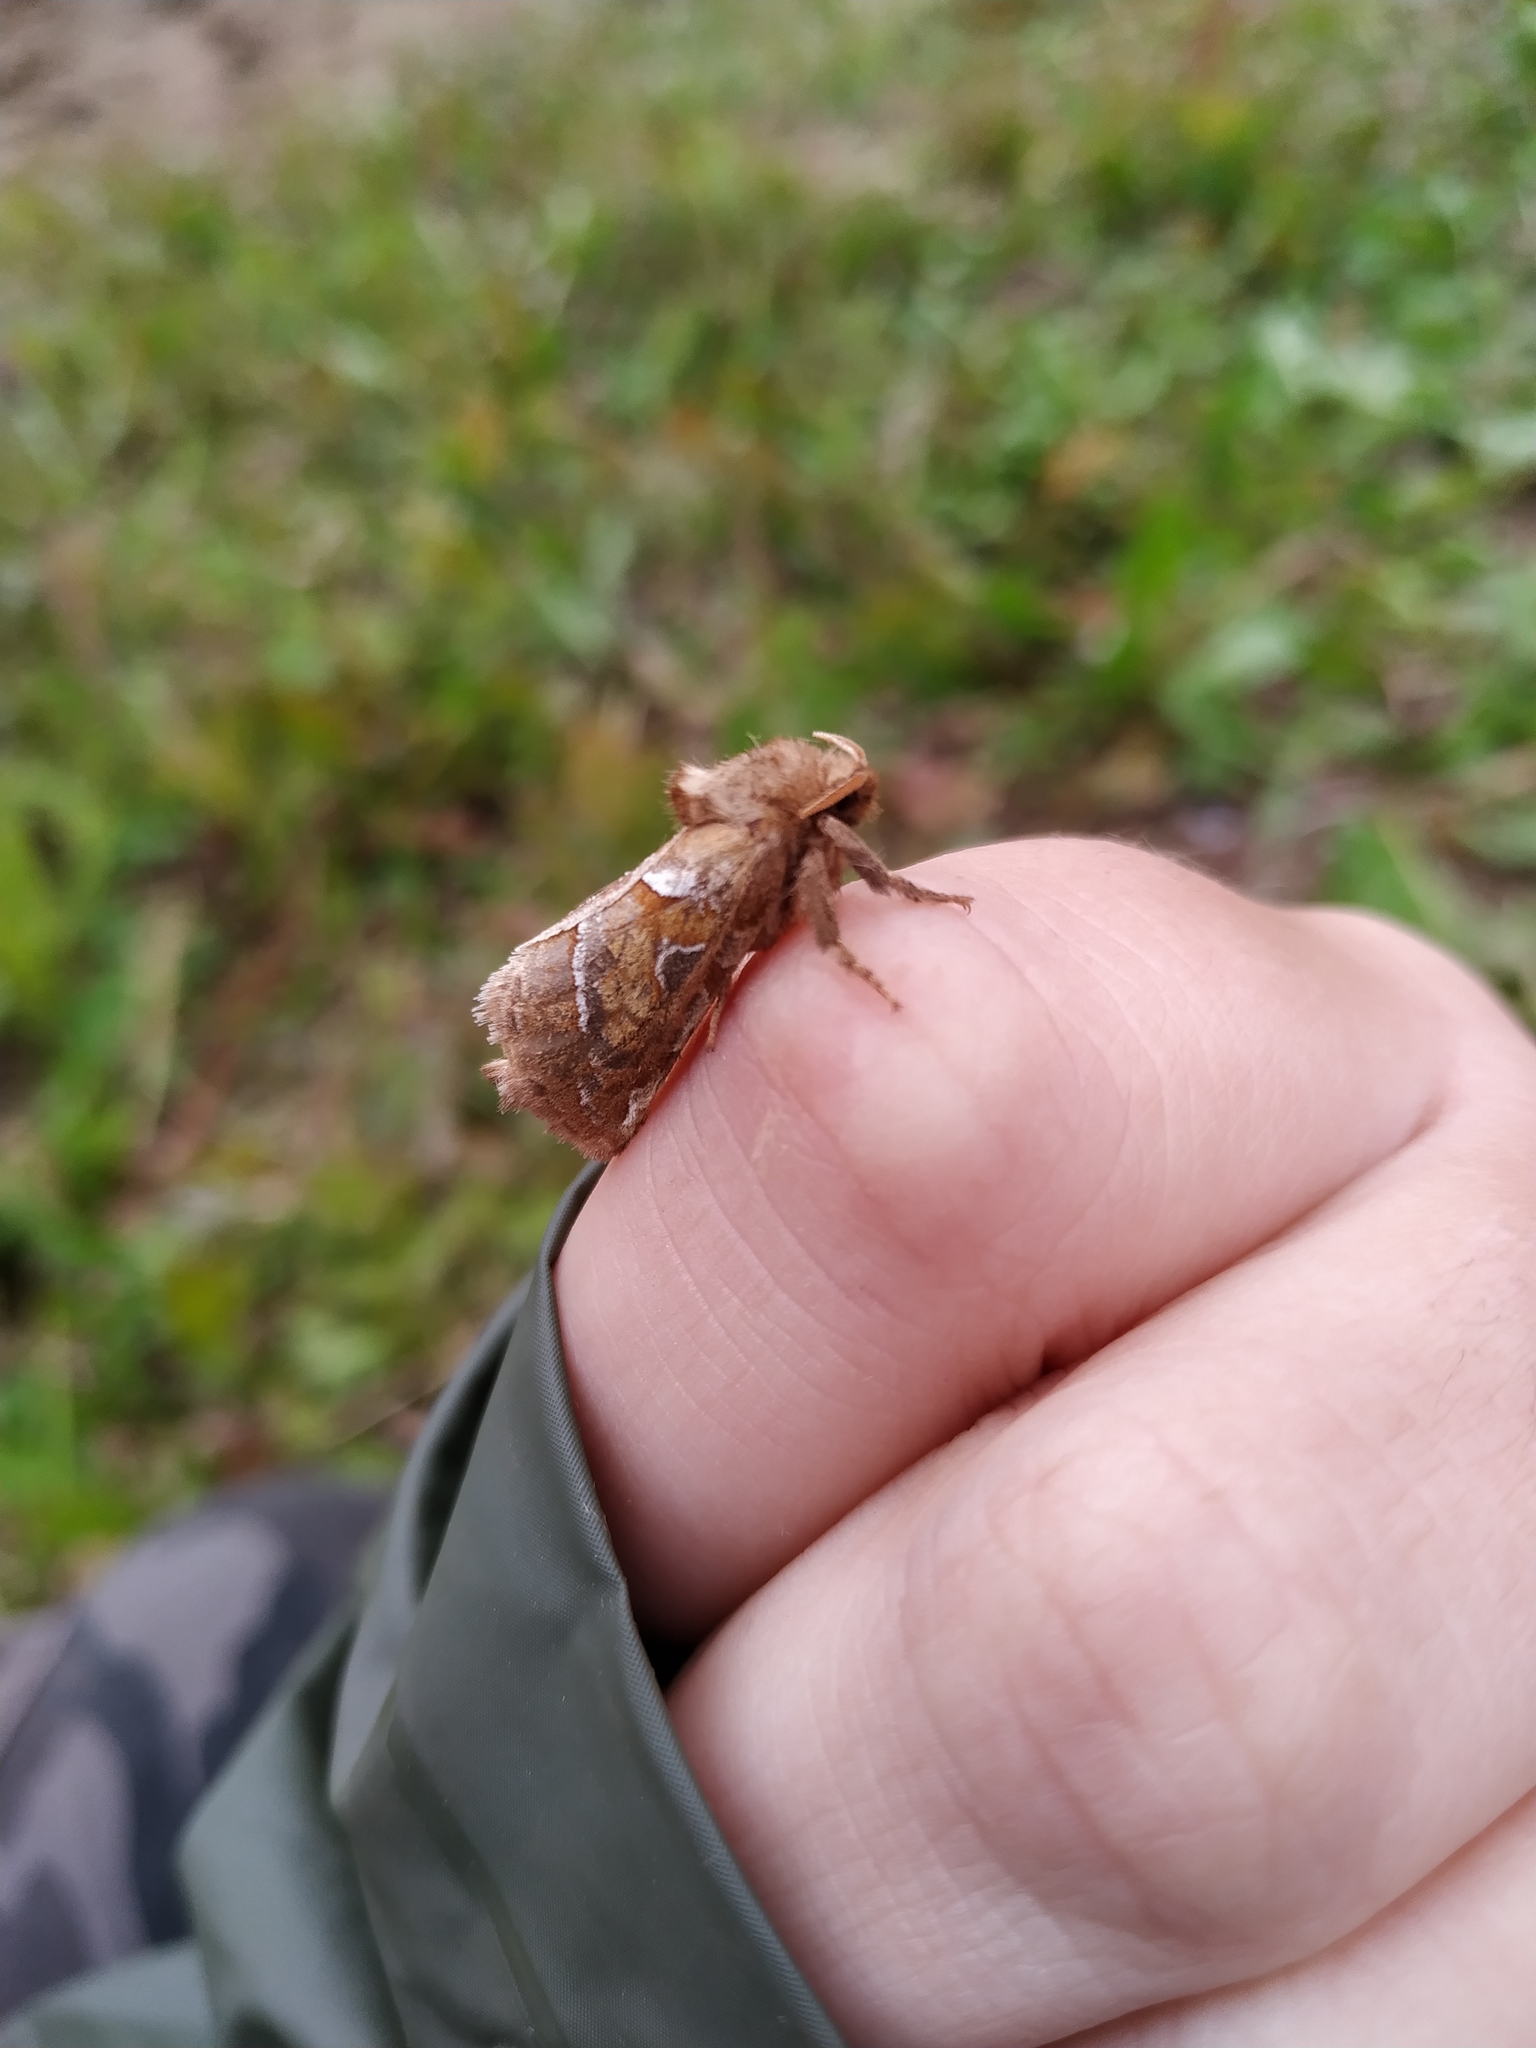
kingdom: Animalia
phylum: Arthropoda
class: Insecta
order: Lepidoptera
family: Hepialidae
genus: Triodia
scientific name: Triodia sylvina
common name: Orange swift
